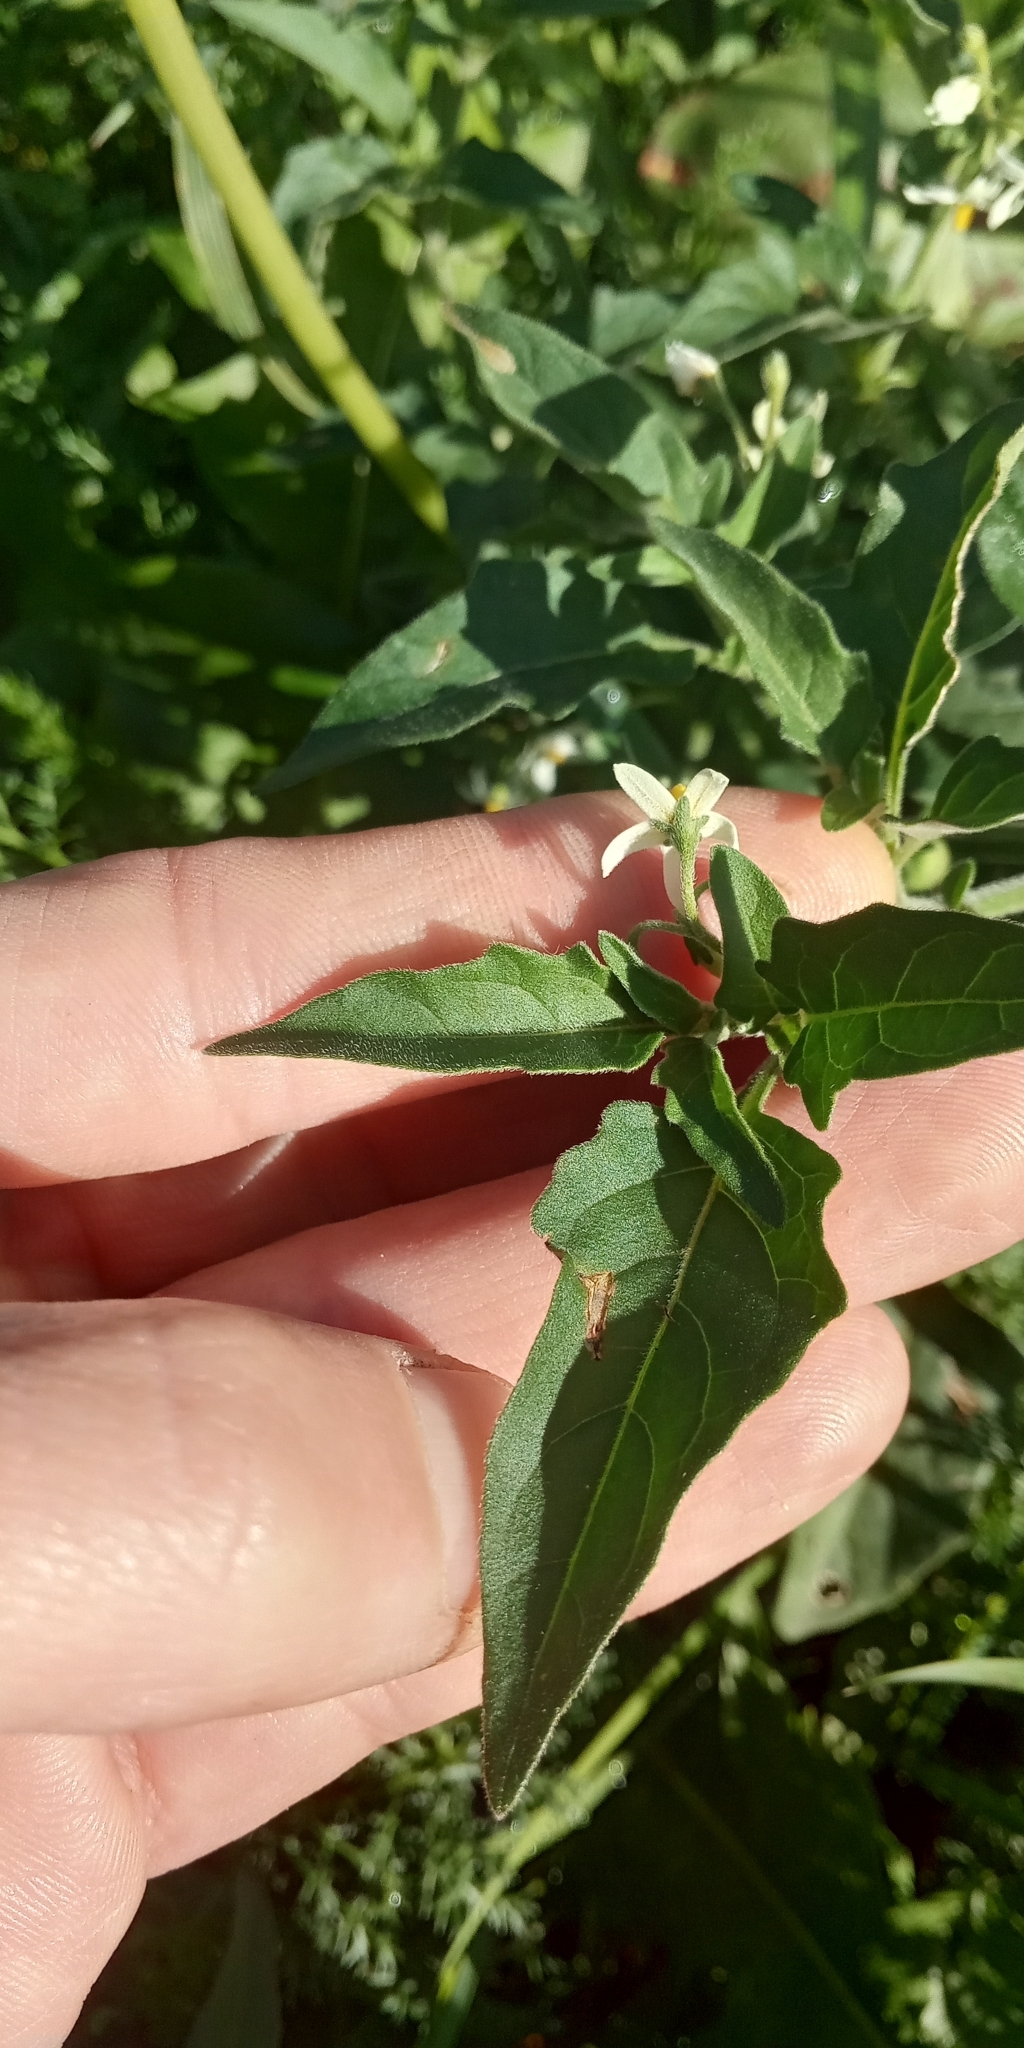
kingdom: Plantae
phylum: Tracheophyta
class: Magnoliopsida
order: Solanales
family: Solanaceae
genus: Solanum
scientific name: Solanum chenopodioides
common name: Tall nightshade
